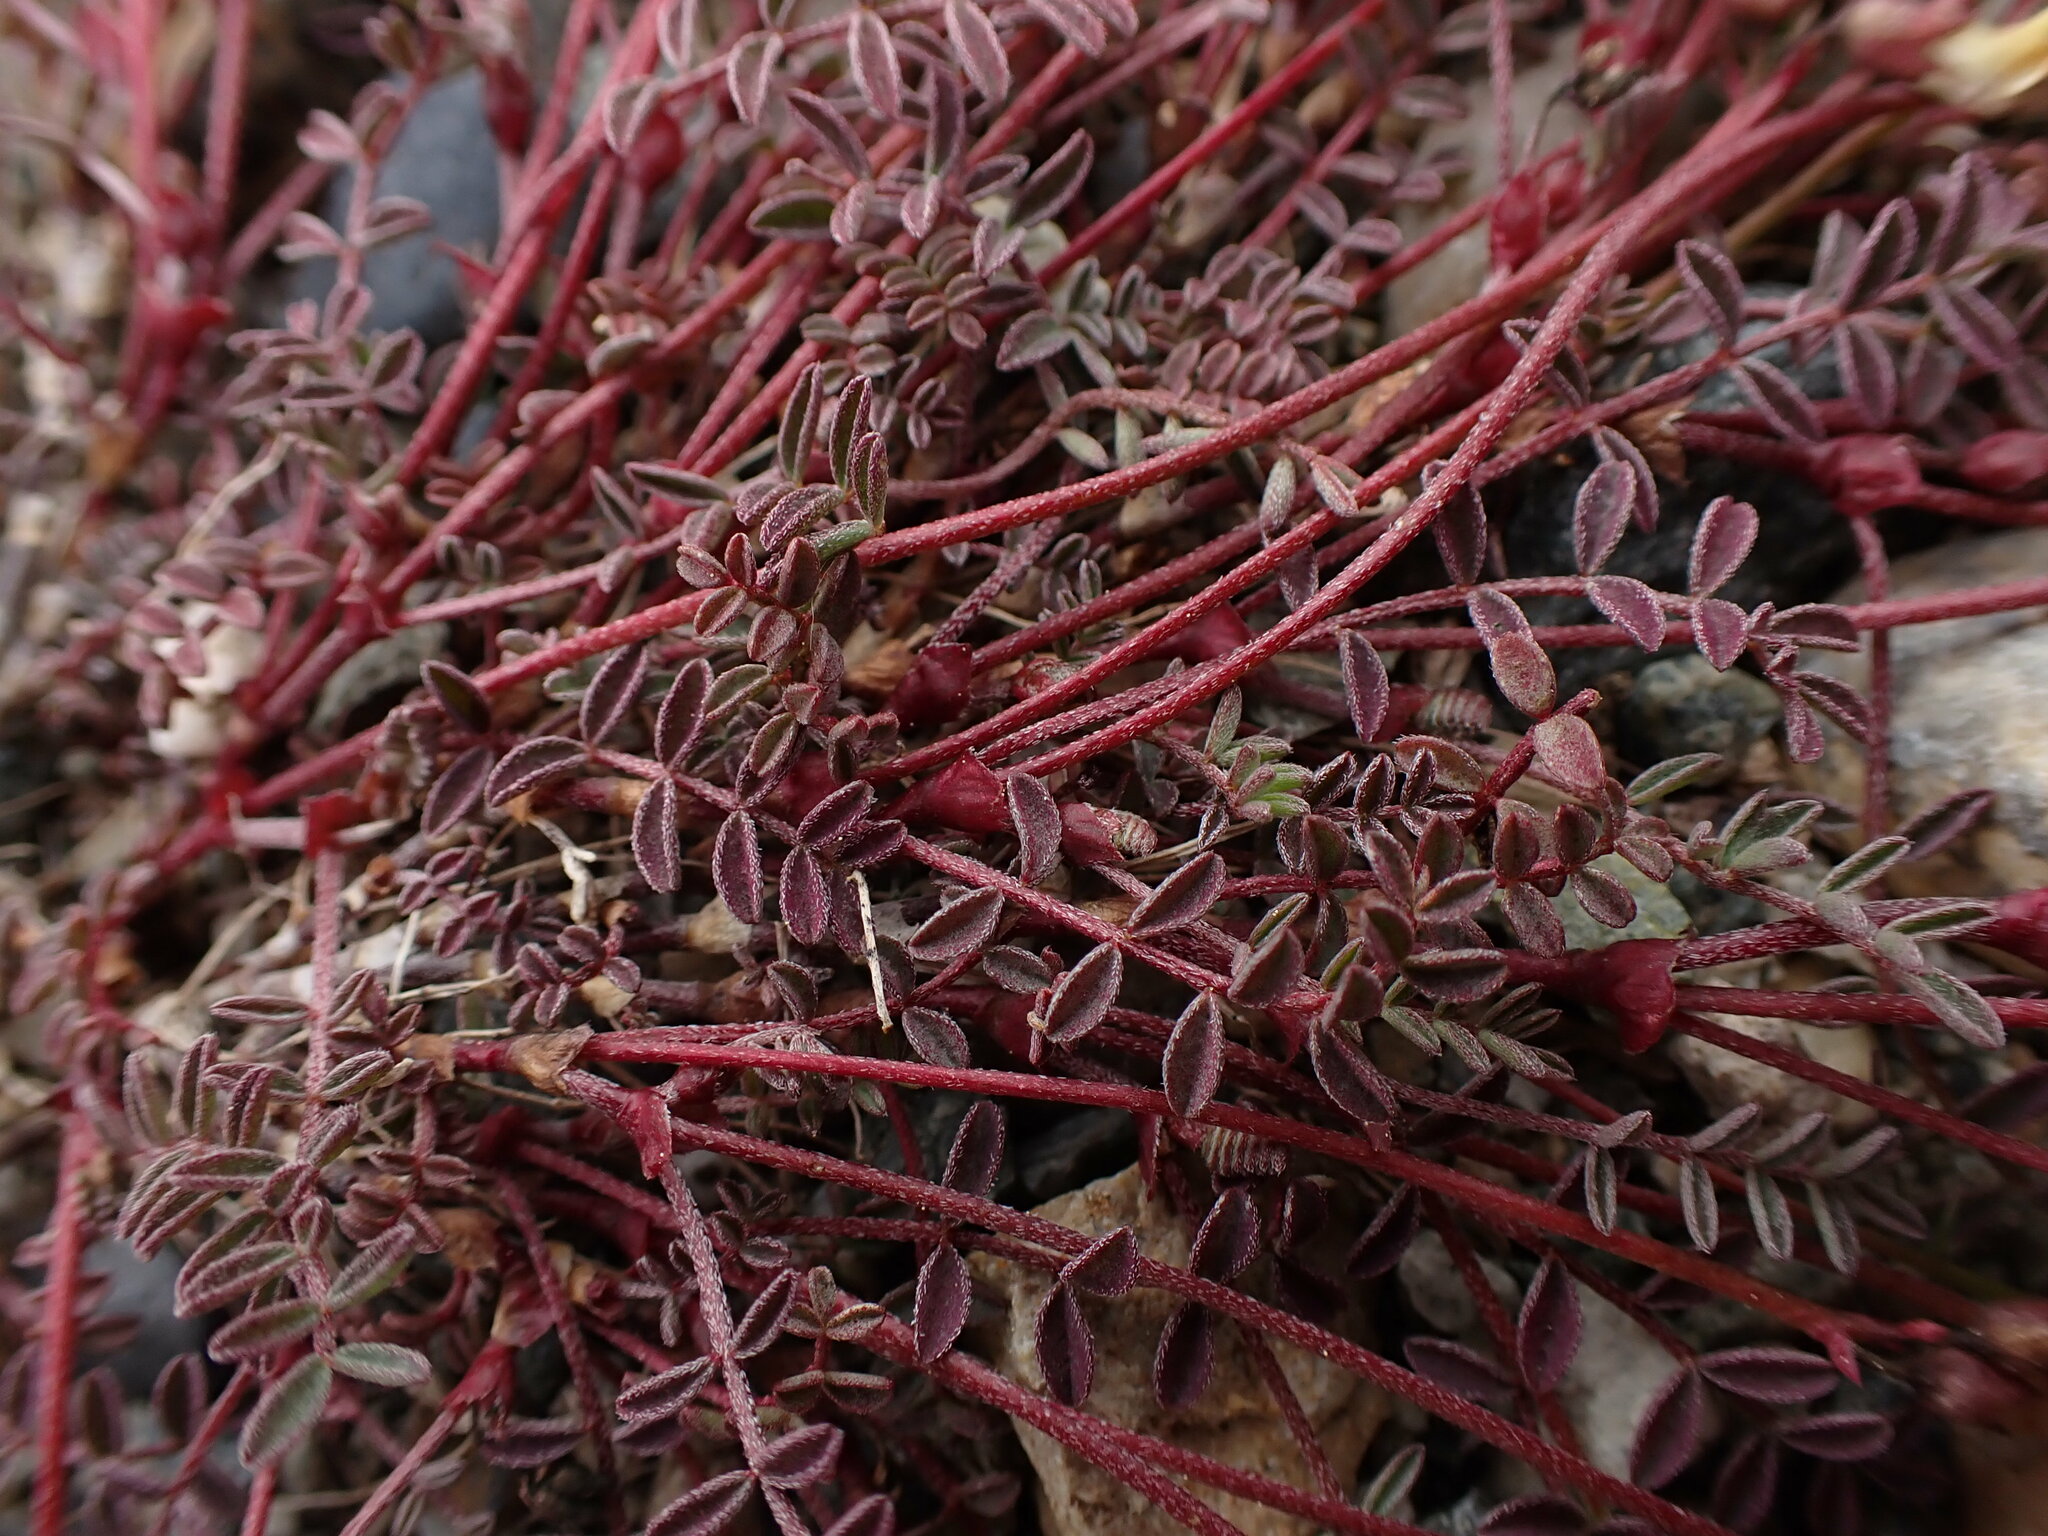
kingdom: Plantae
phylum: Tracheophyta
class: Magnoliopsida
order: Fabales
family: Fabaceae
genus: Astragalus
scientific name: Astragalus nutzotinensis
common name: Nutzotin milk-vetch
